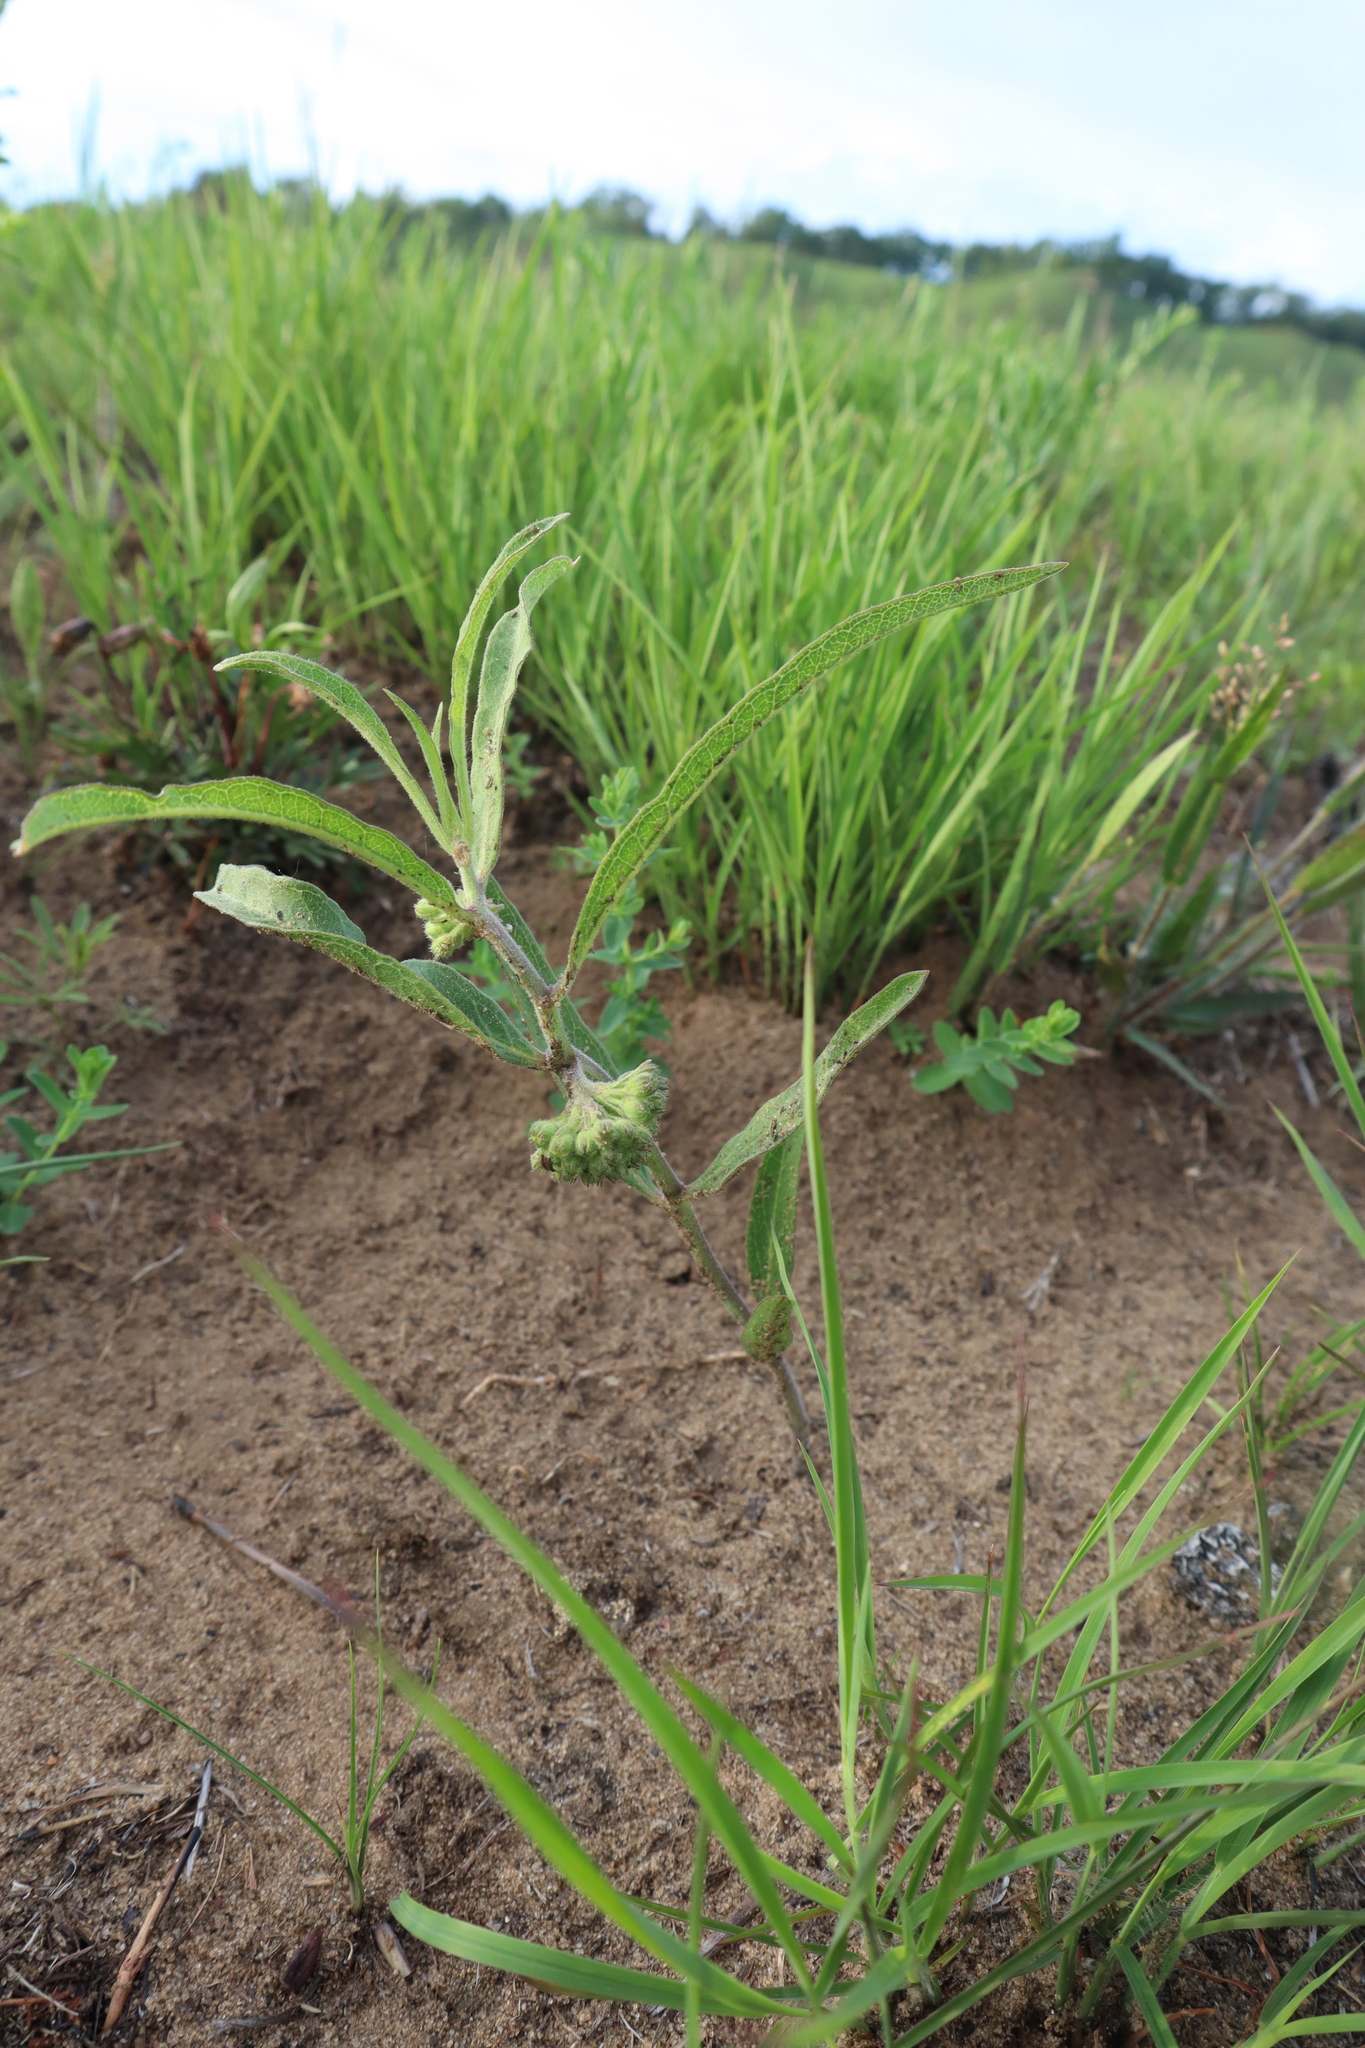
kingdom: Plantae
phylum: Tracheophyta
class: Magnoliopsida
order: Gentianales
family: Apocynaceae
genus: Asclepias
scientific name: Asclepias viridiflora
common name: Green comet milkweed
